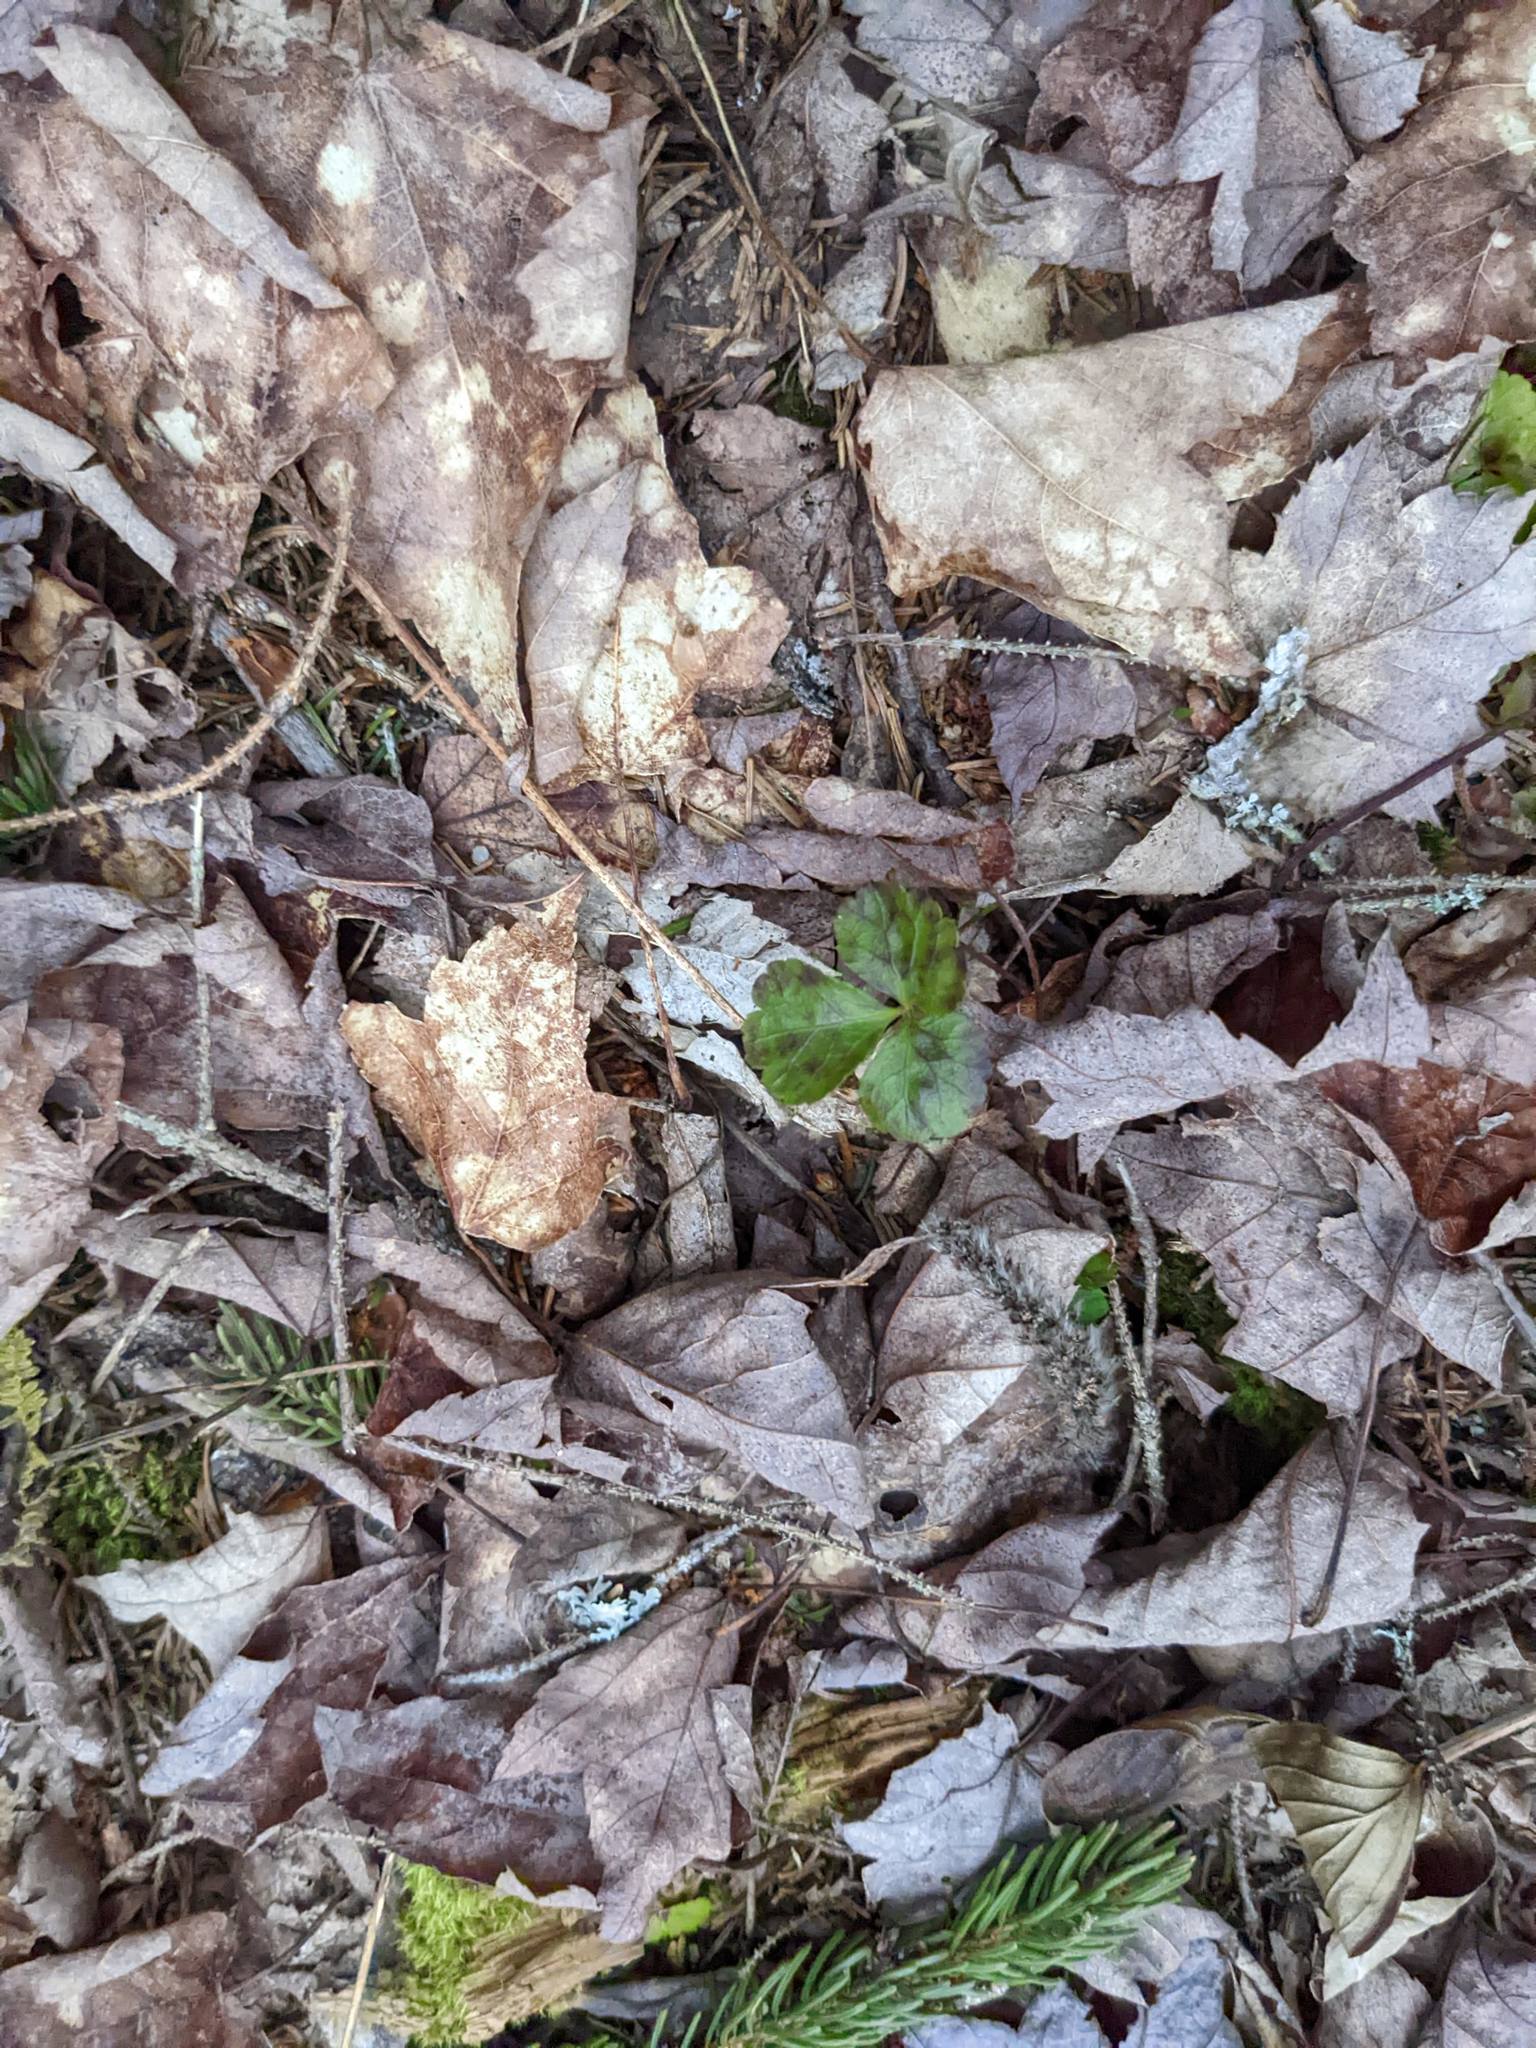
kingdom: Plantae
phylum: Tracheophyta
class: Magnoliopsida
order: Ranunculales
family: Ranunculaceae
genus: Coptis
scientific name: Coptis trifolia
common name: Canker-root
